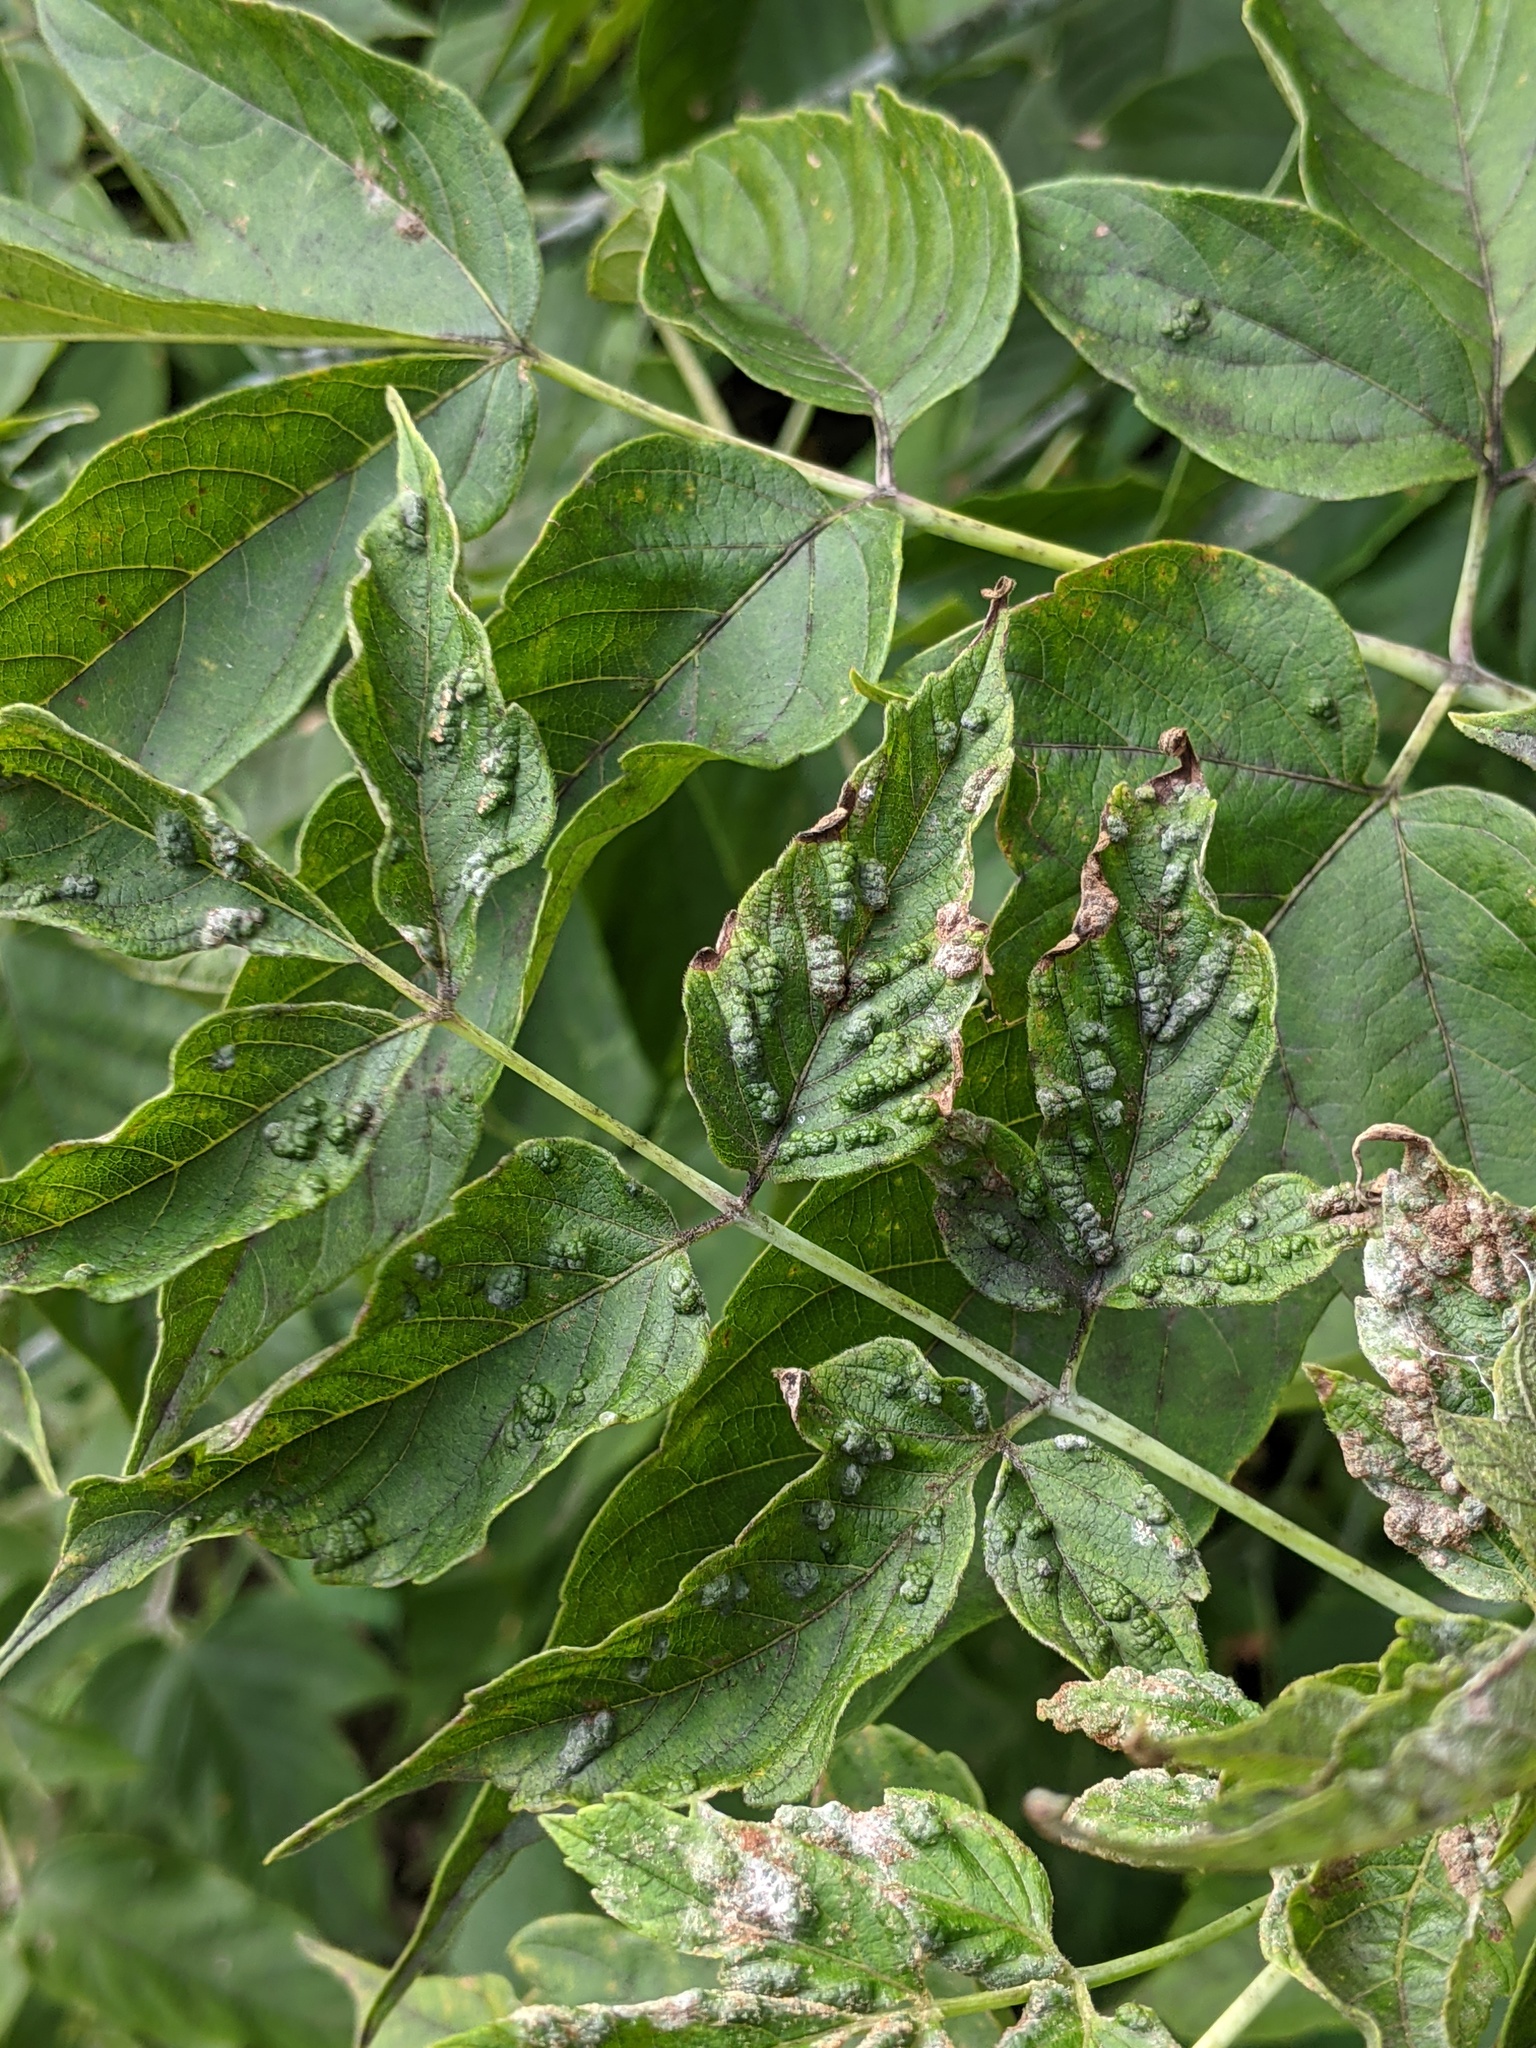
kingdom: Animalia
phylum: Arthropoda
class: Arachnida
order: Trombidiformes
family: Eriophyidae
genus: Aceria
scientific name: Aceria
